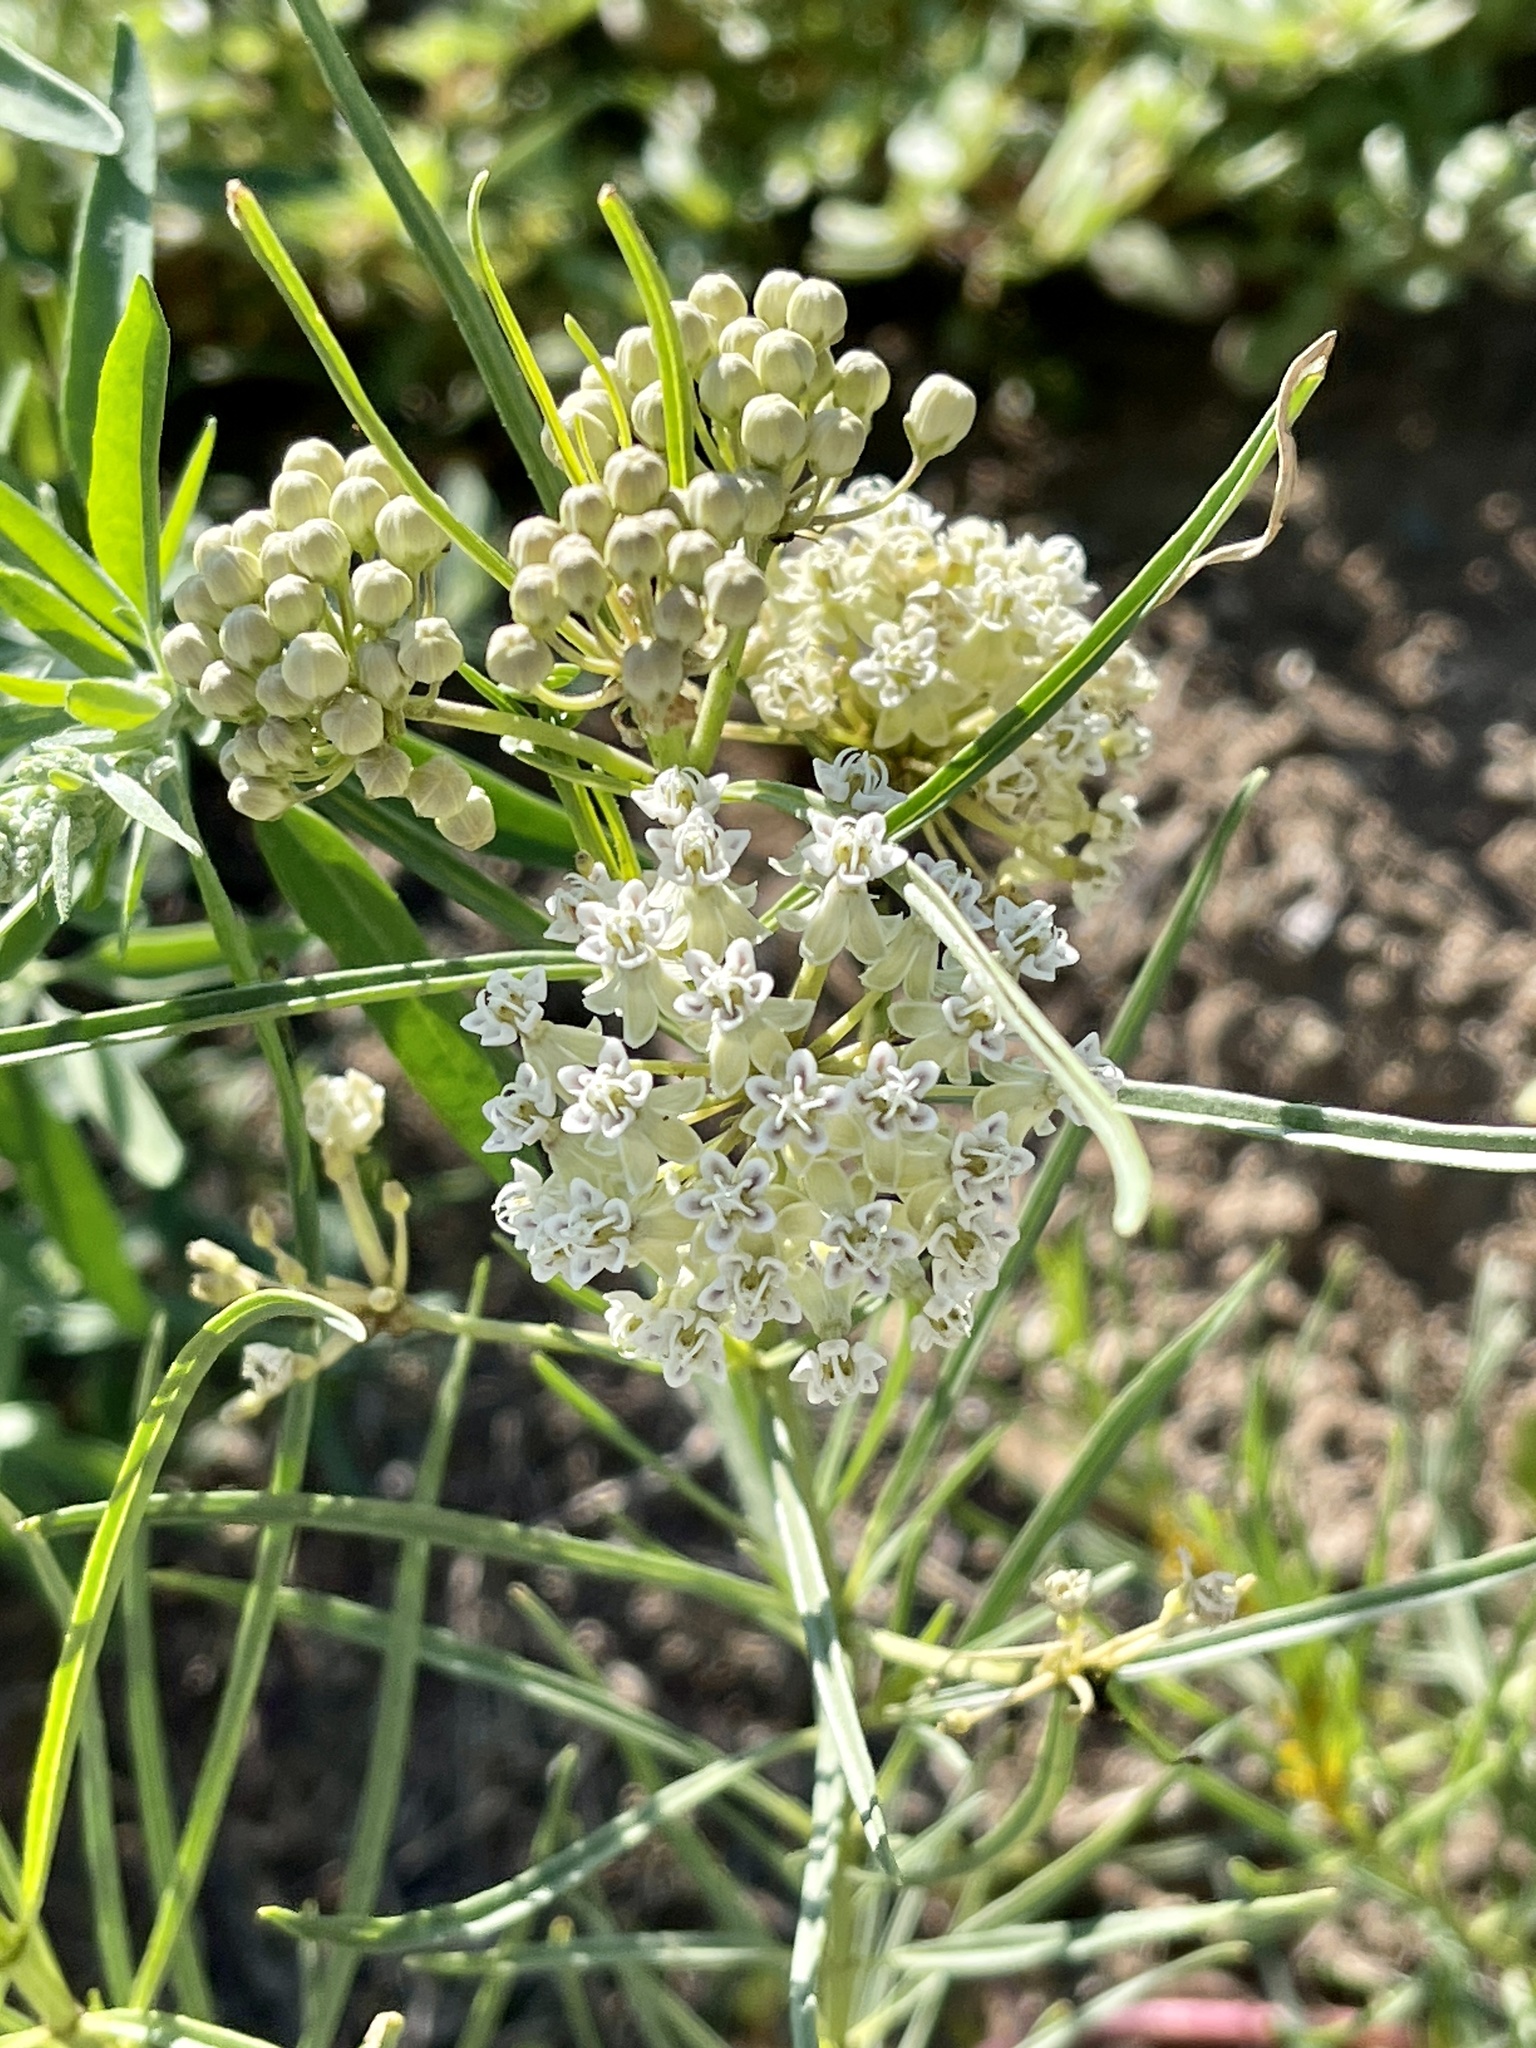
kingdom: Plantae
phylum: Tracheophyta
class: Magnoliopsida
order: Gentianales
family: Apocynaceae
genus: Asclepias
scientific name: Asclepias subverticillata
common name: Horsetail milkweed
